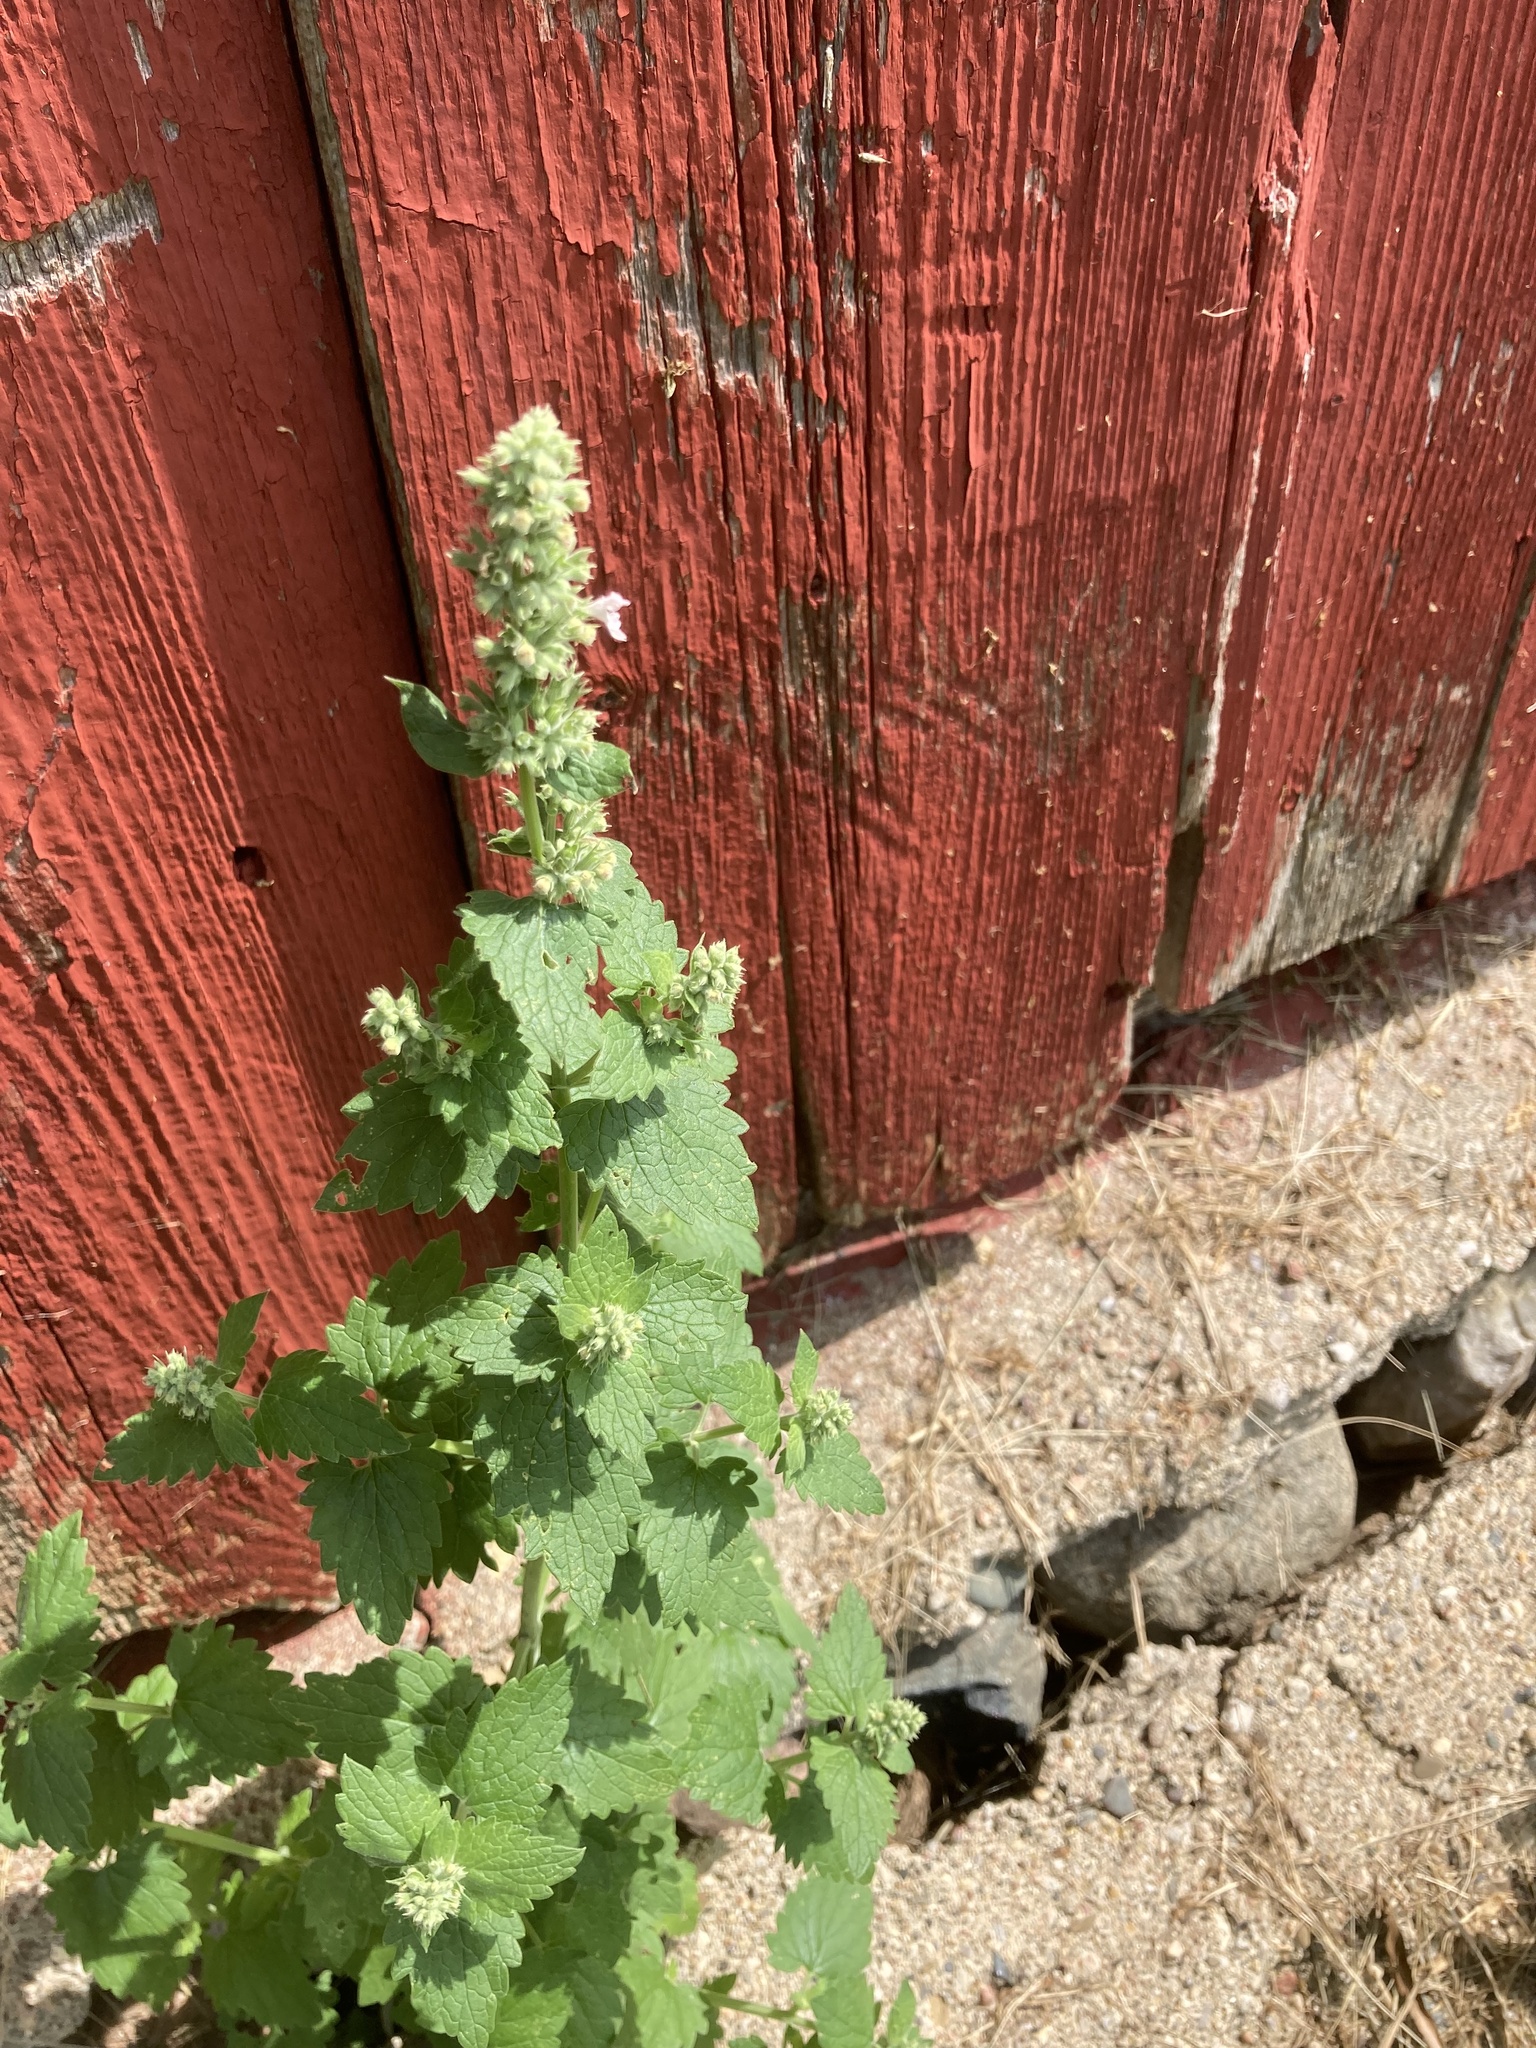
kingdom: Plantae
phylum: Tracheophyta
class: Magnoliopsida
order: Lamiales
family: Lamiaceae
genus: Nepeta
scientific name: Nepeta cataria
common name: Catnip
